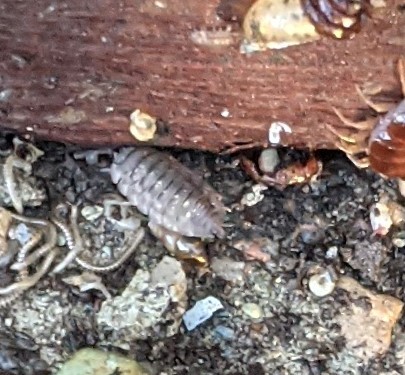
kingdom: Animalia
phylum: Arthropoda
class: Malacostraca
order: Isopoda
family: Oniscidae
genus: Oniscus
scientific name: Oniscus asellus
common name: Common shiny woodlouse
